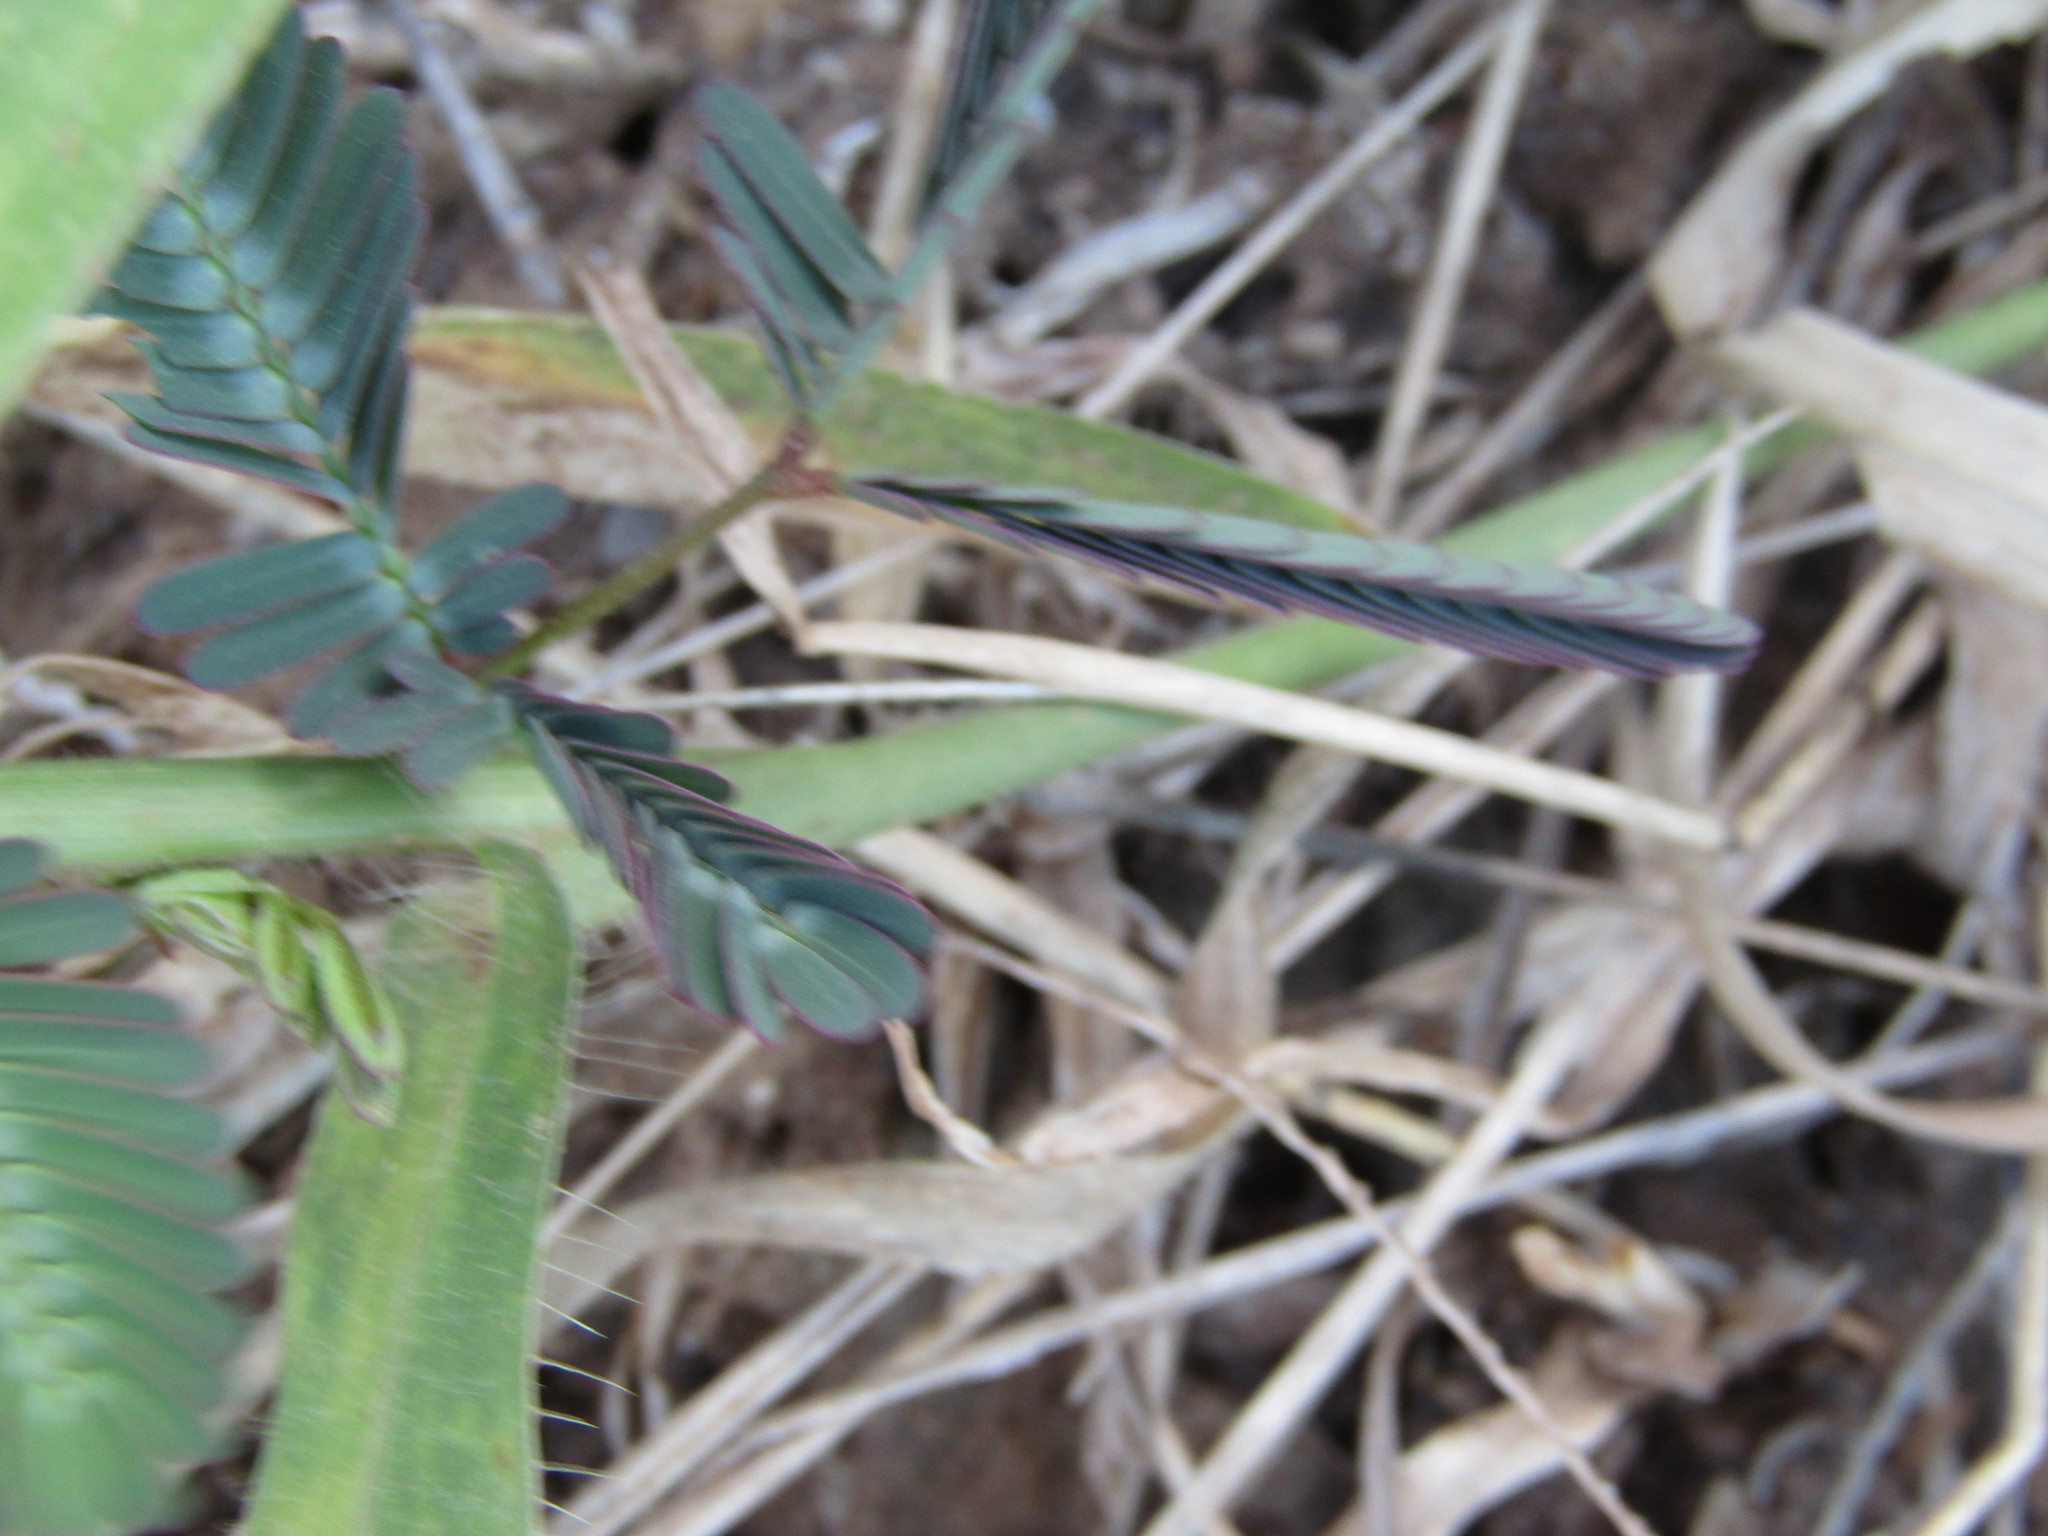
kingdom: Plantae
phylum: Tracheophyta
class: Magnoliopsida
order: Fabales
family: Fabaceae
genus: Neptunia
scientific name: Neptunia plena
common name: Dead and awake
